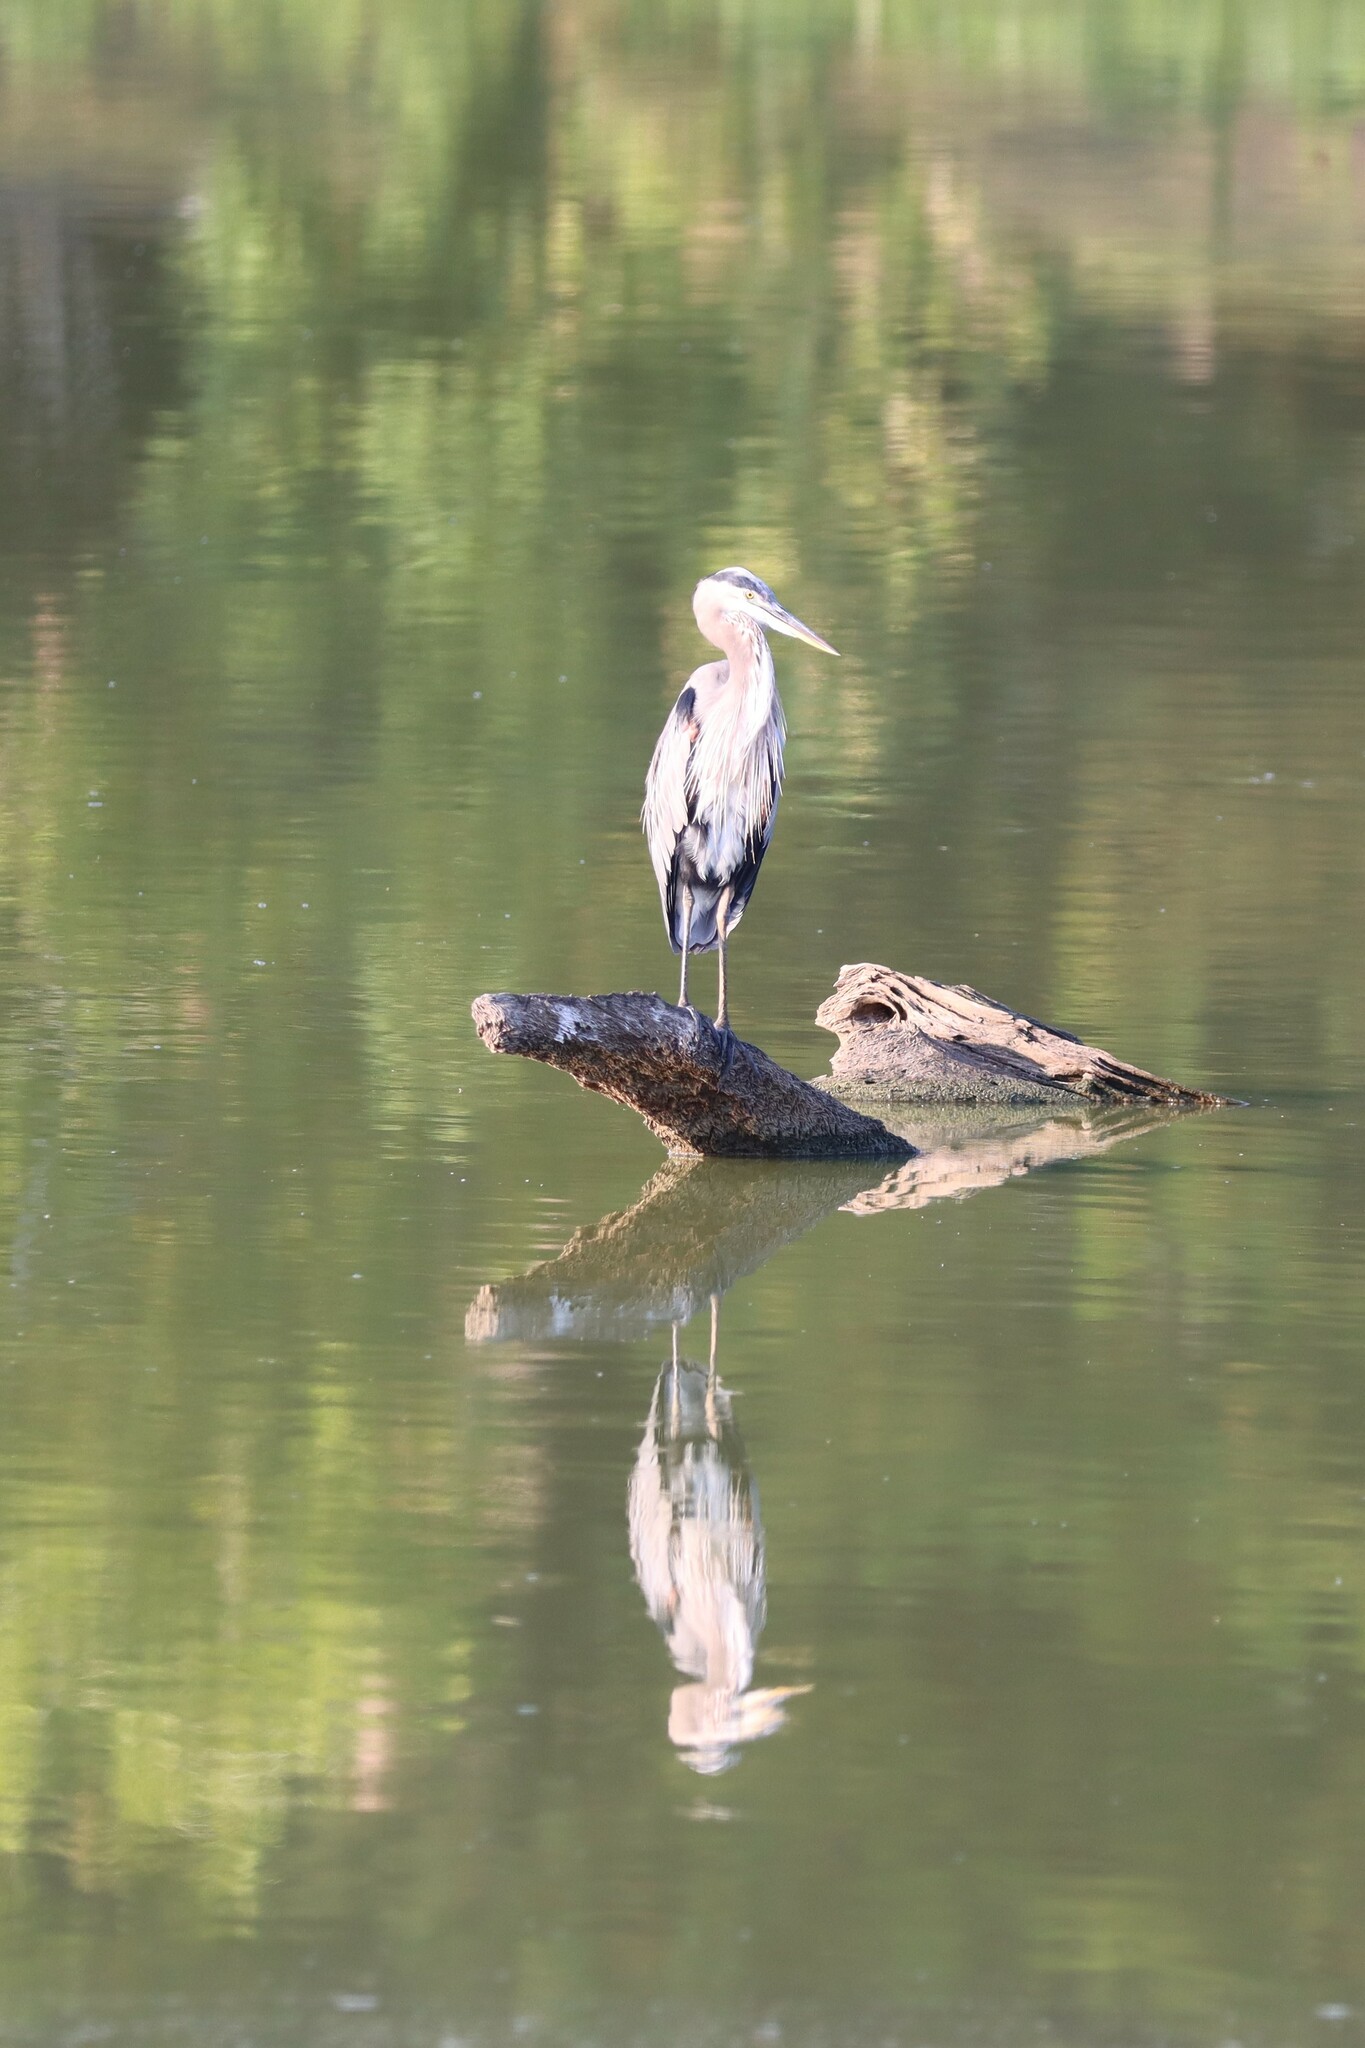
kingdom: Animalia
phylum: Chordata
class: Aves
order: Pelecaniformes
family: Ardeidae
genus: Ardea
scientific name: Ardea herodias
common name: Great blue heron
